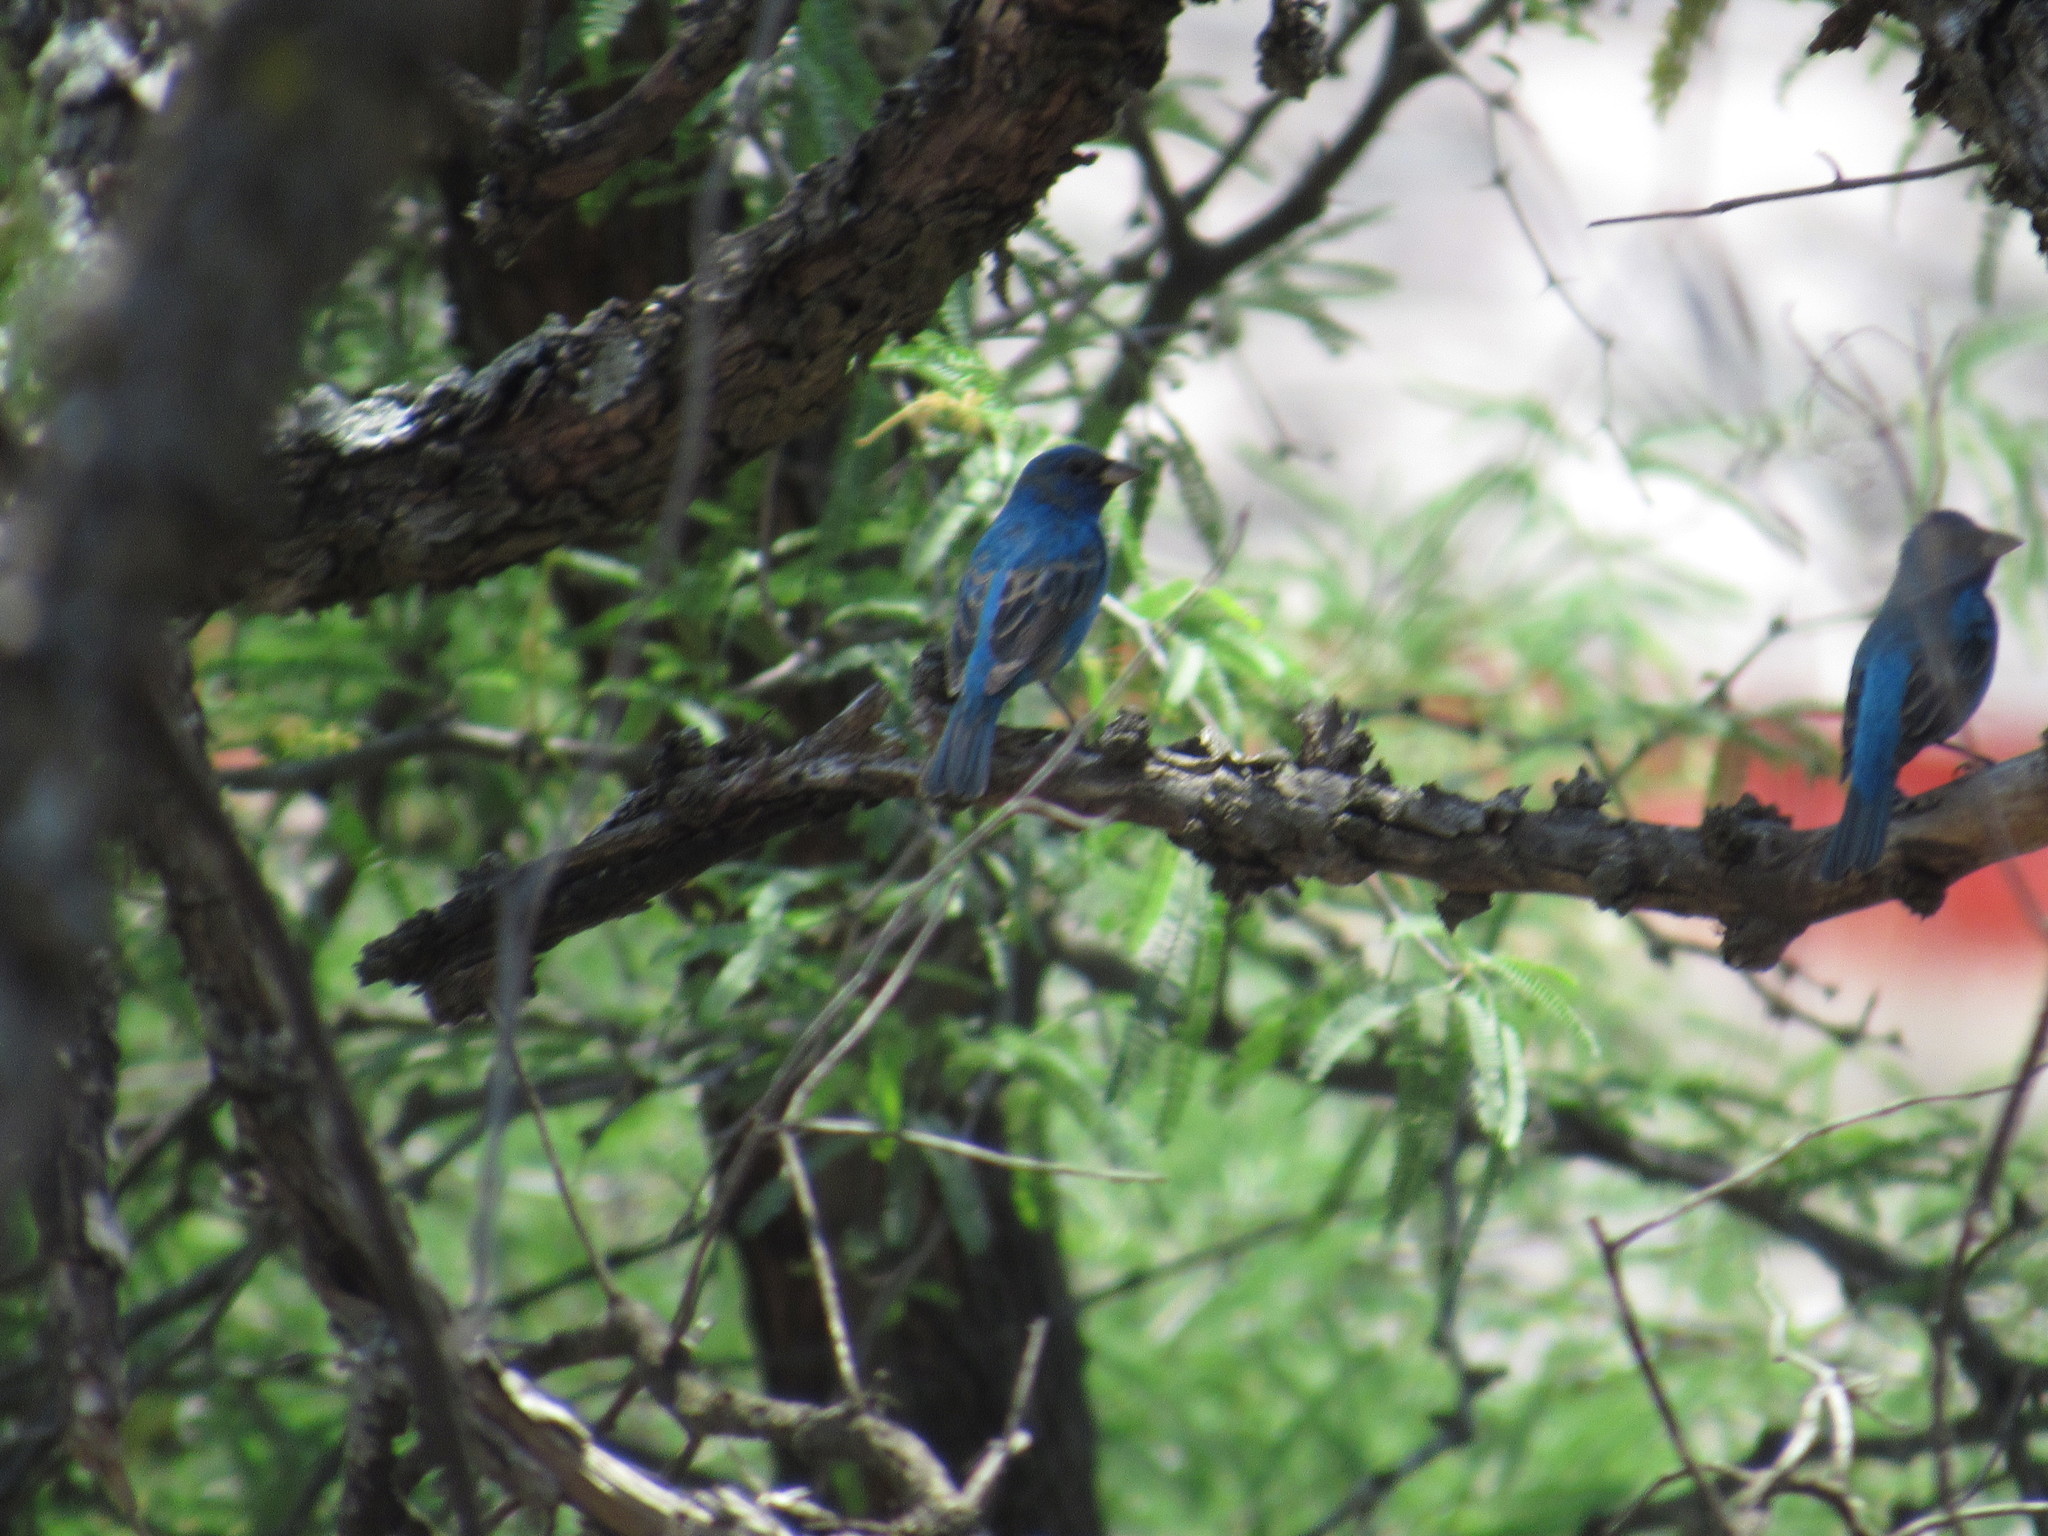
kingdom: Animalia
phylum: Chordata
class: Aves
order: Passeriformes
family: Cardinalidae
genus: Passerina
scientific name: Passerina cyanea
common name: Indigo bunting
